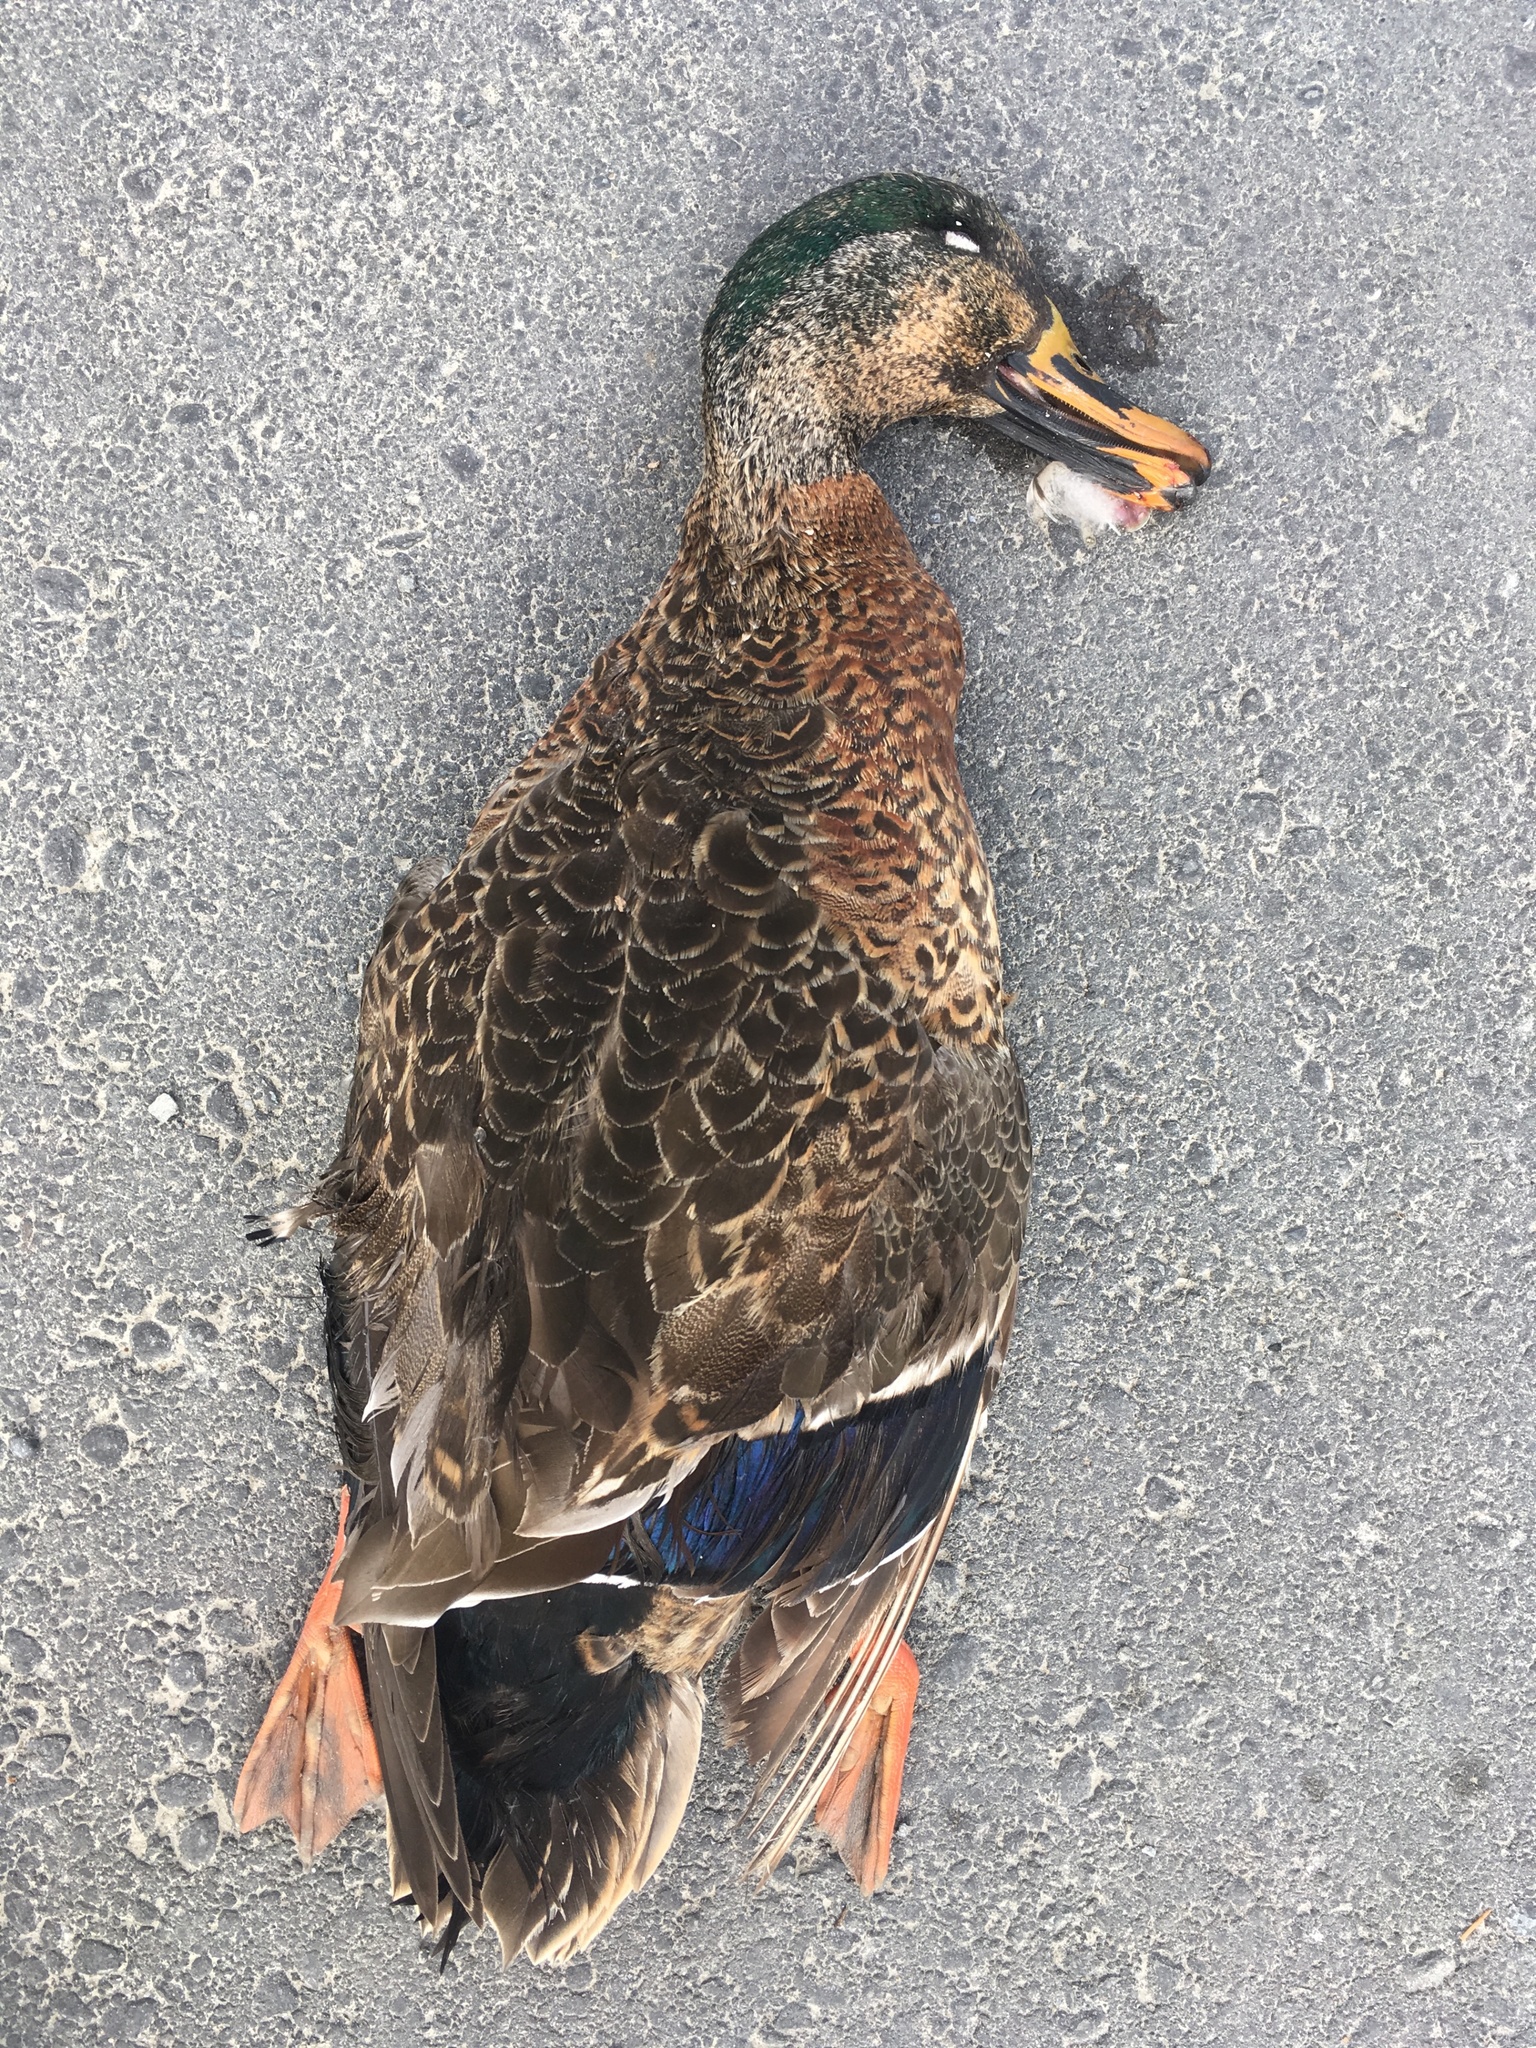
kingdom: Animalia
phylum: Chordata
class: Aves
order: Anseriformes
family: Anatidae
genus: Anas
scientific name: Anas
